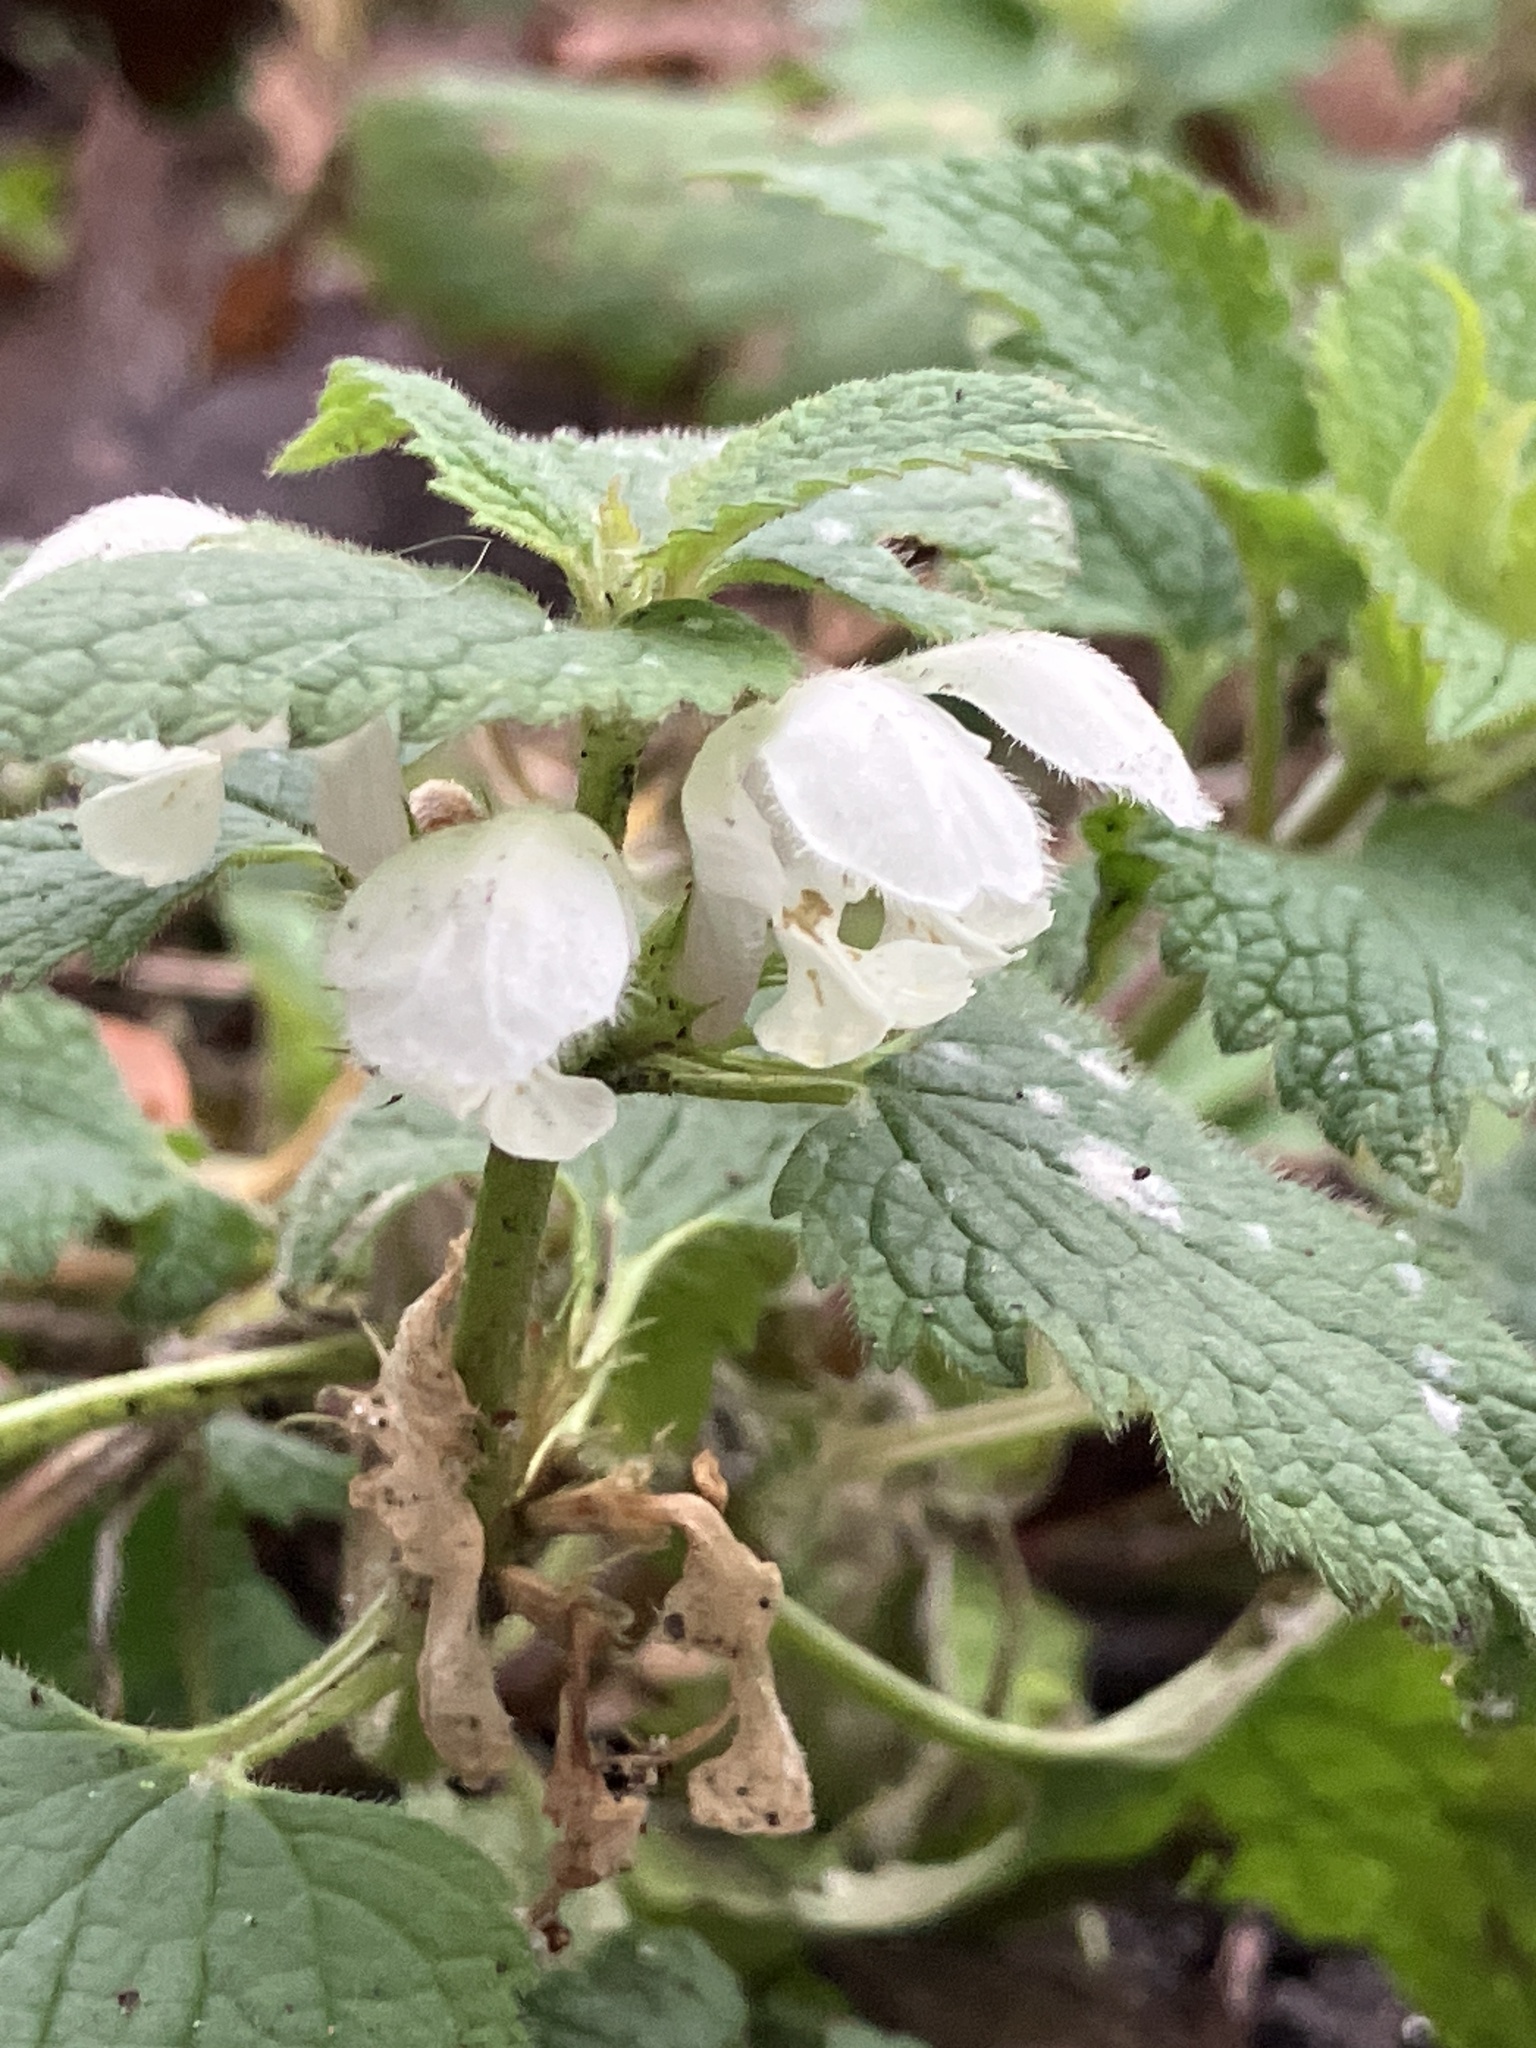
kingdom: Plantae
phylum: Tracheophyta
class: Magnoliopsida
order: Lamiales
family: Lamiaceae
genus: Lamium
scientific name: Lamium album
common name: White dead-nettle
